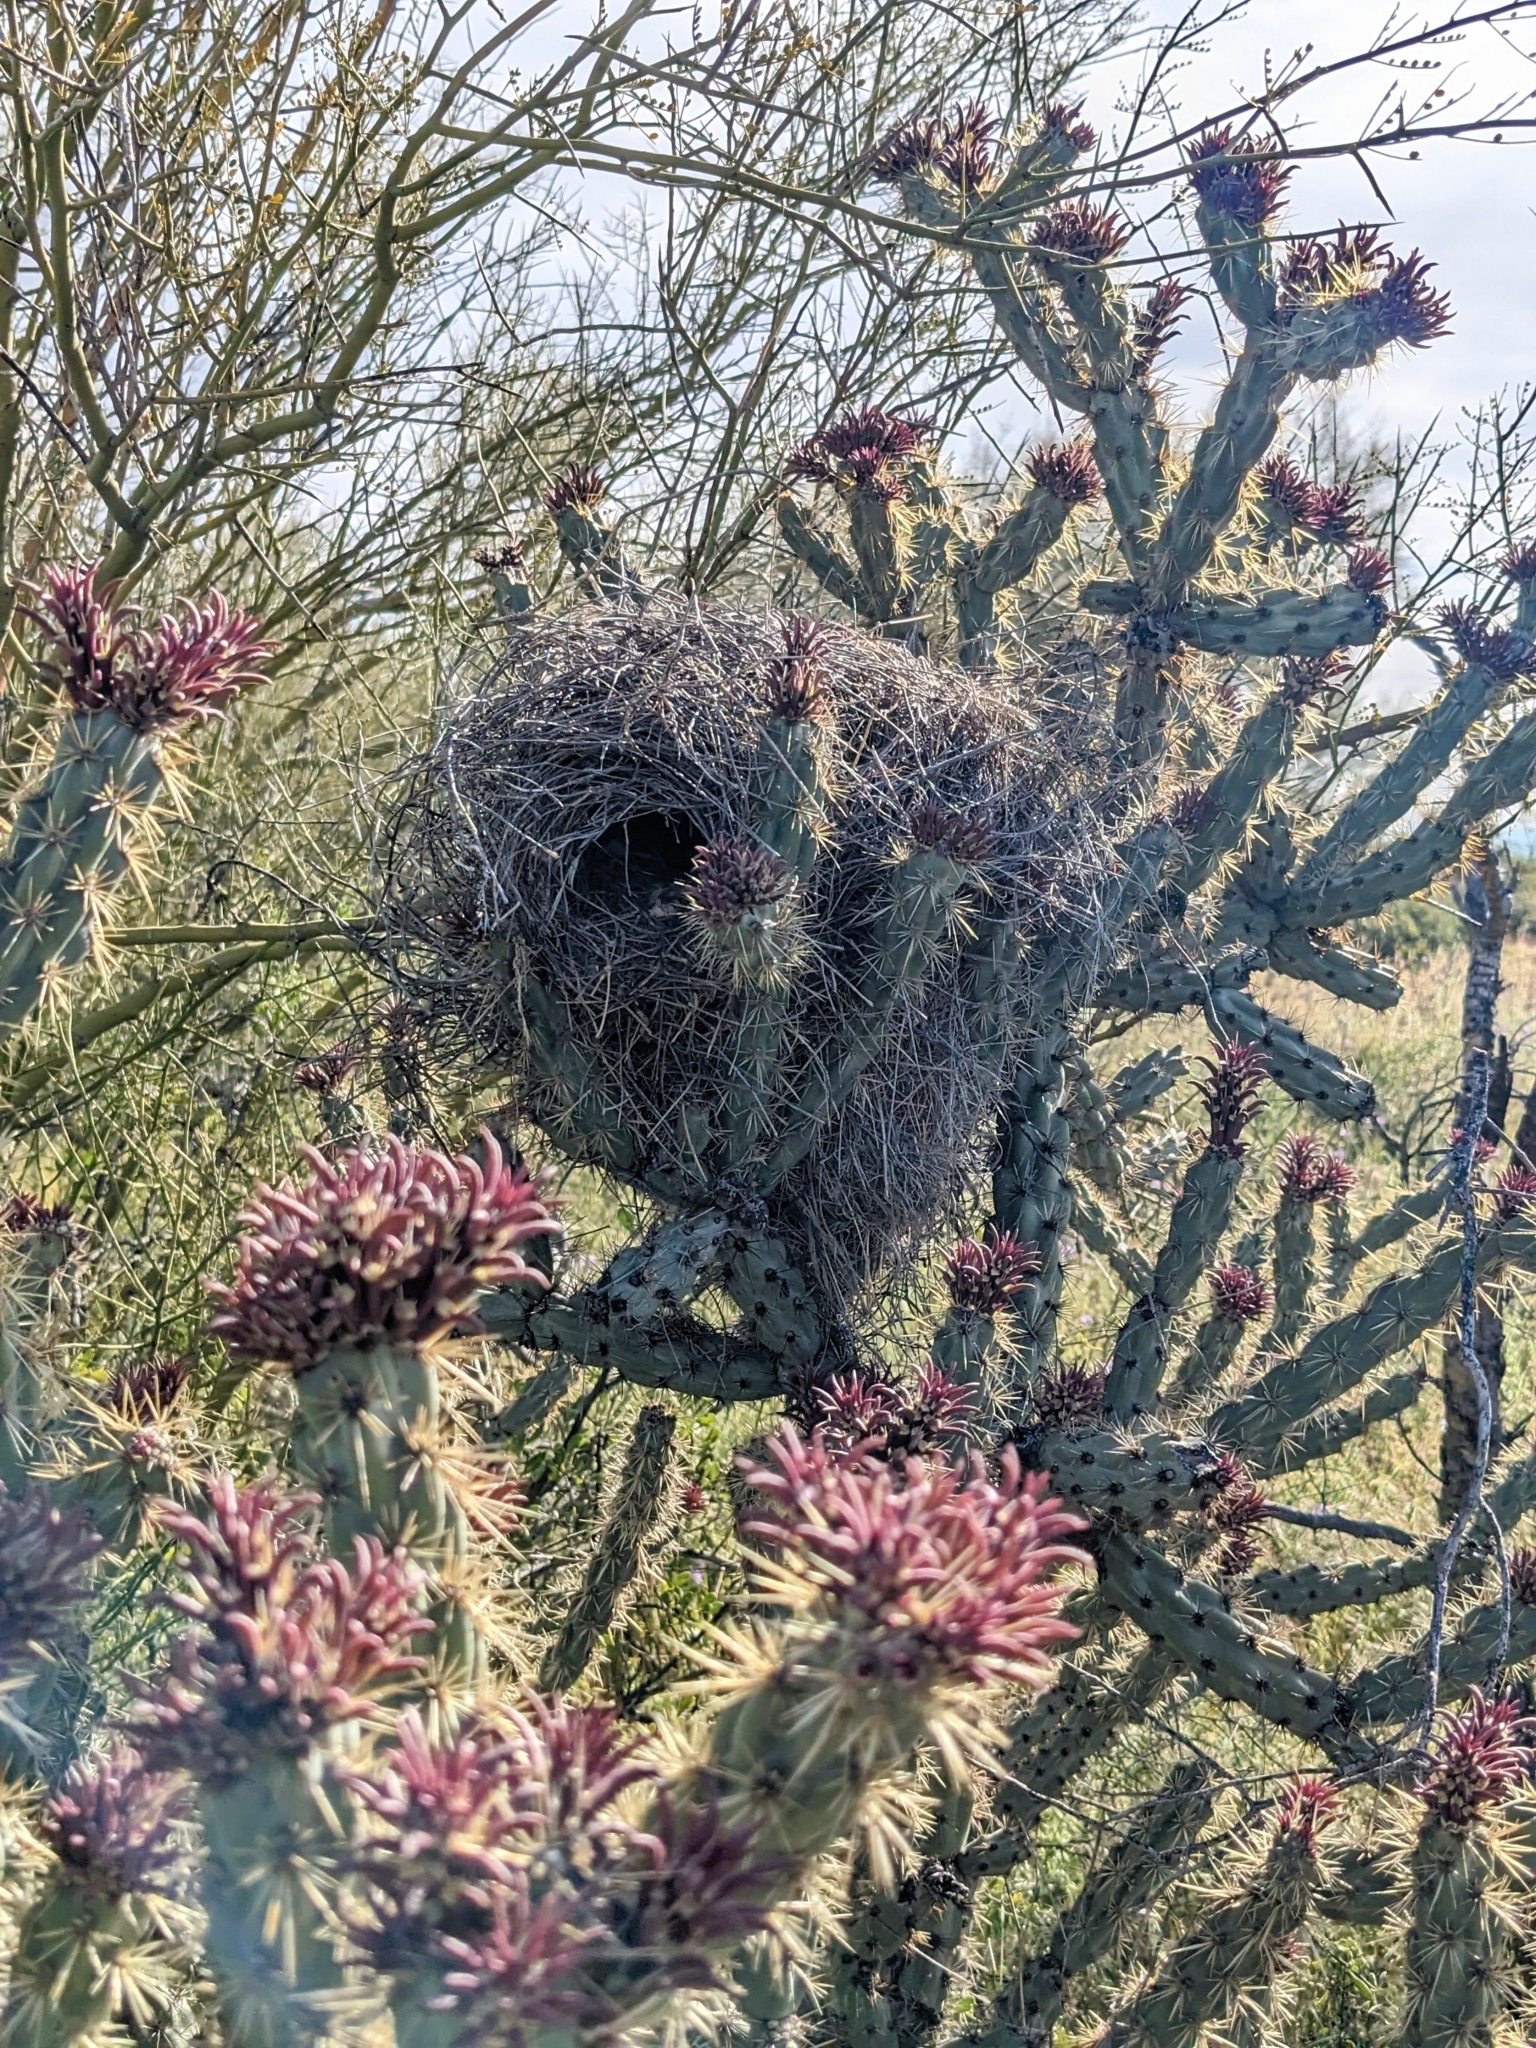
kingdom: Animalia
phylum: Chordata
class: Aves
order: Passeriformes
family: Troglodytidae
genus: Campylorhynchus
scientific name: Campylorhynchus brunneicapillus
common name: Cactus wren
